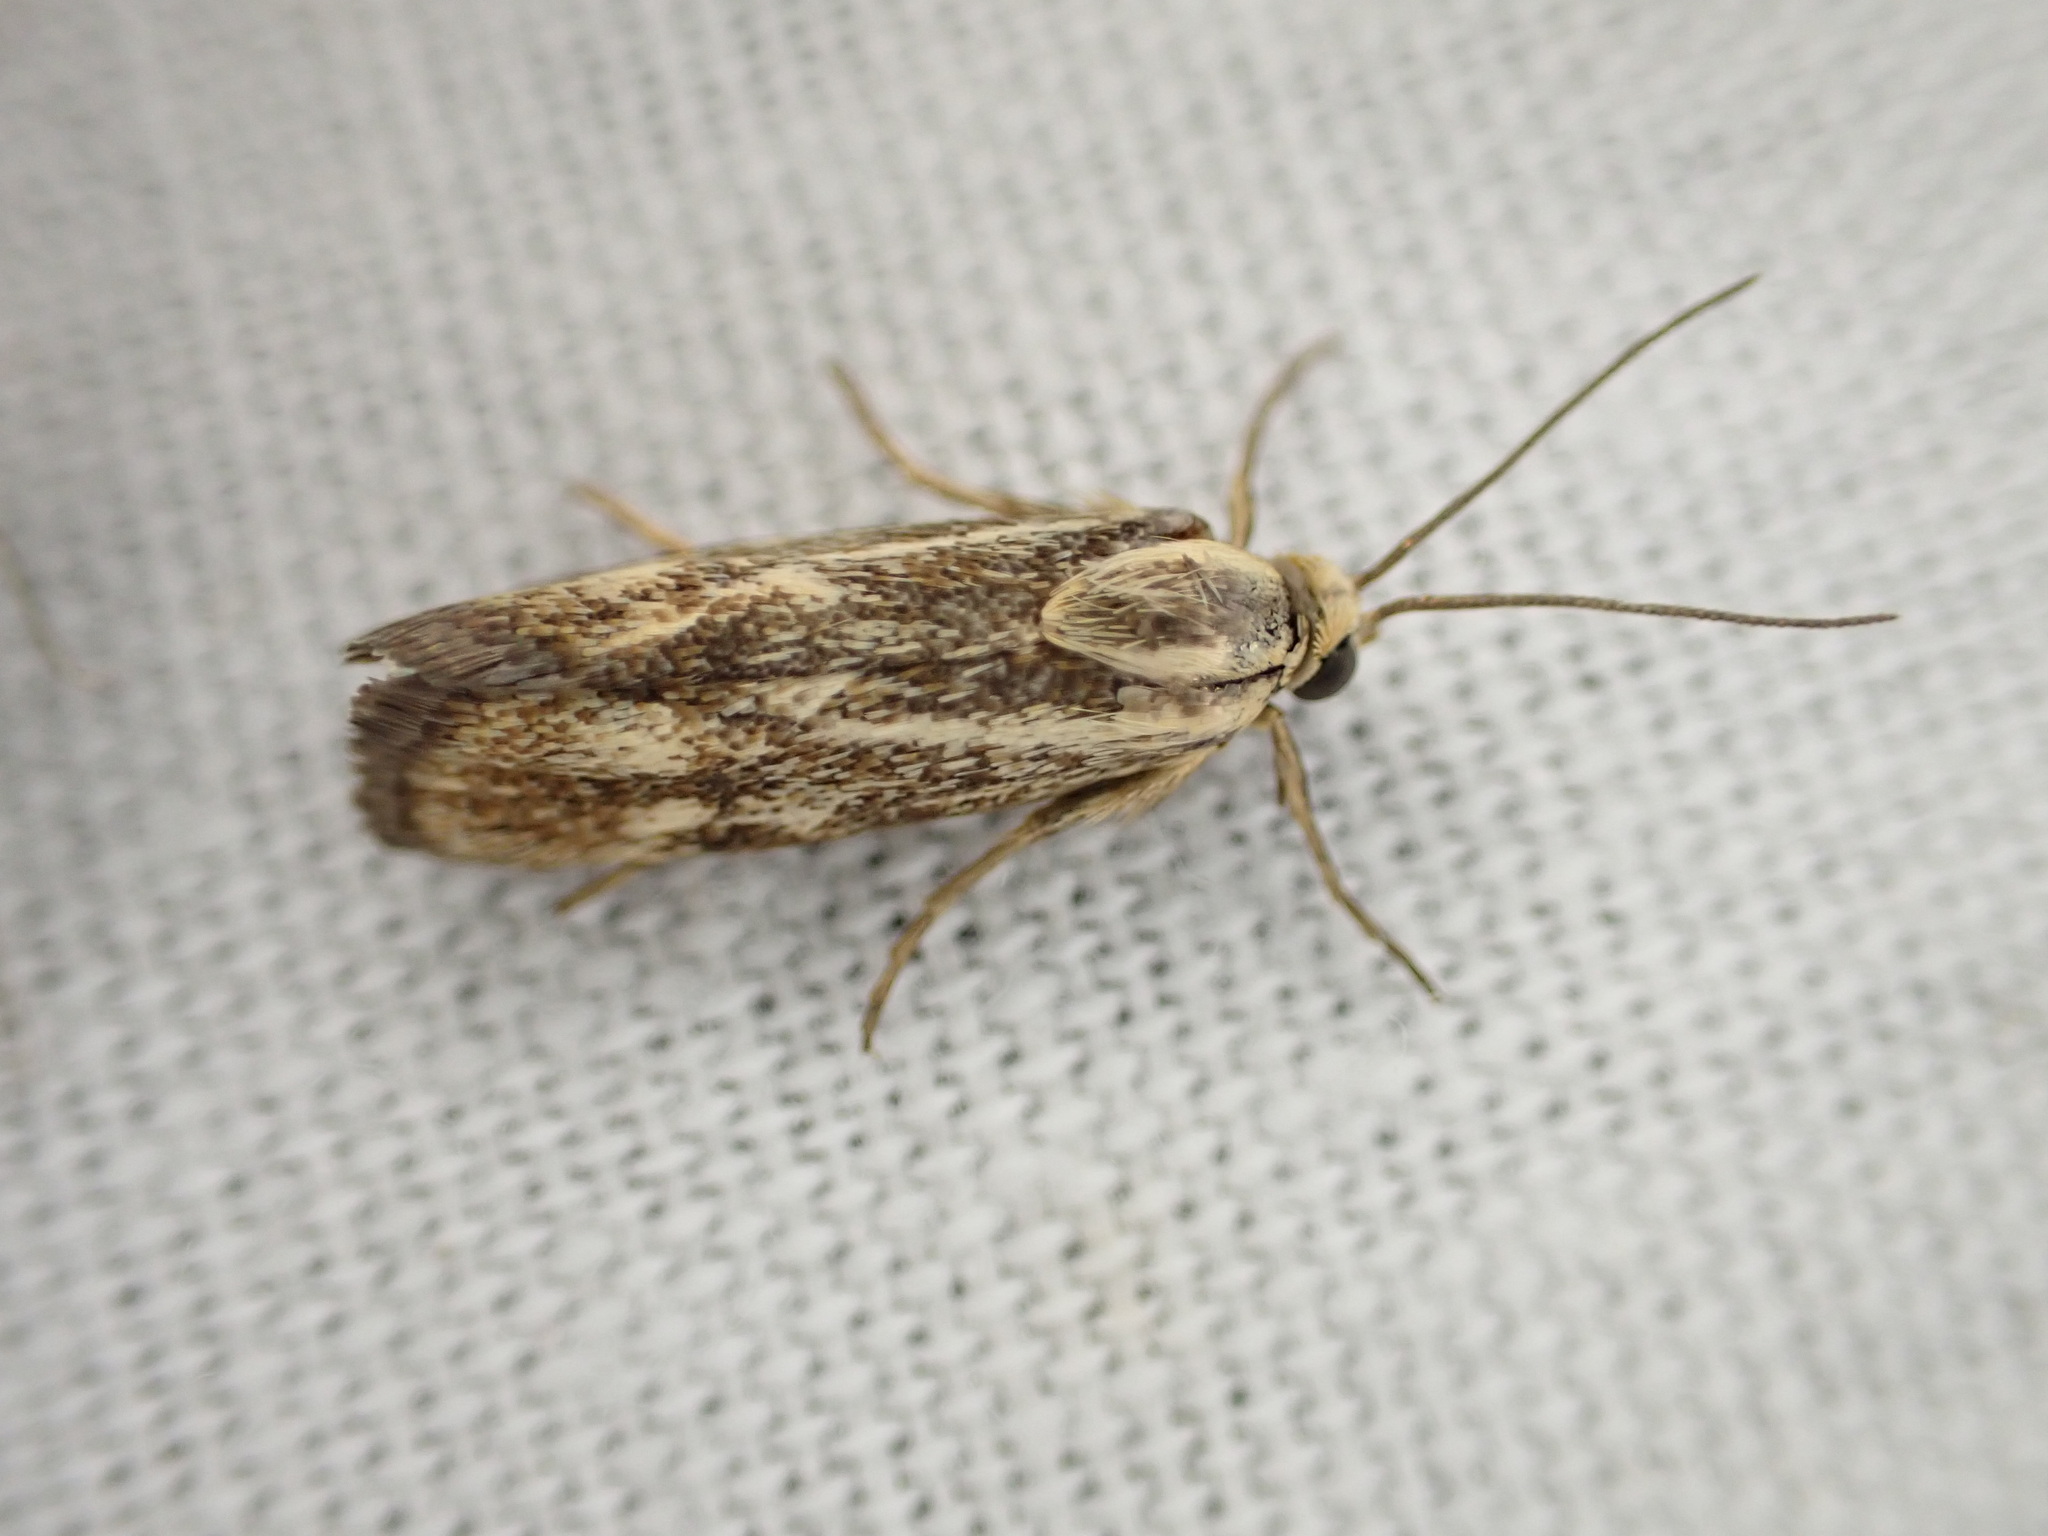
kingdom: Animalia
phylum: Arthropoda
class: Insecta
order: Lepidoptera
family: Brachodidae
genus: Atychia
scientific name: Atychia Brachodes funebris
